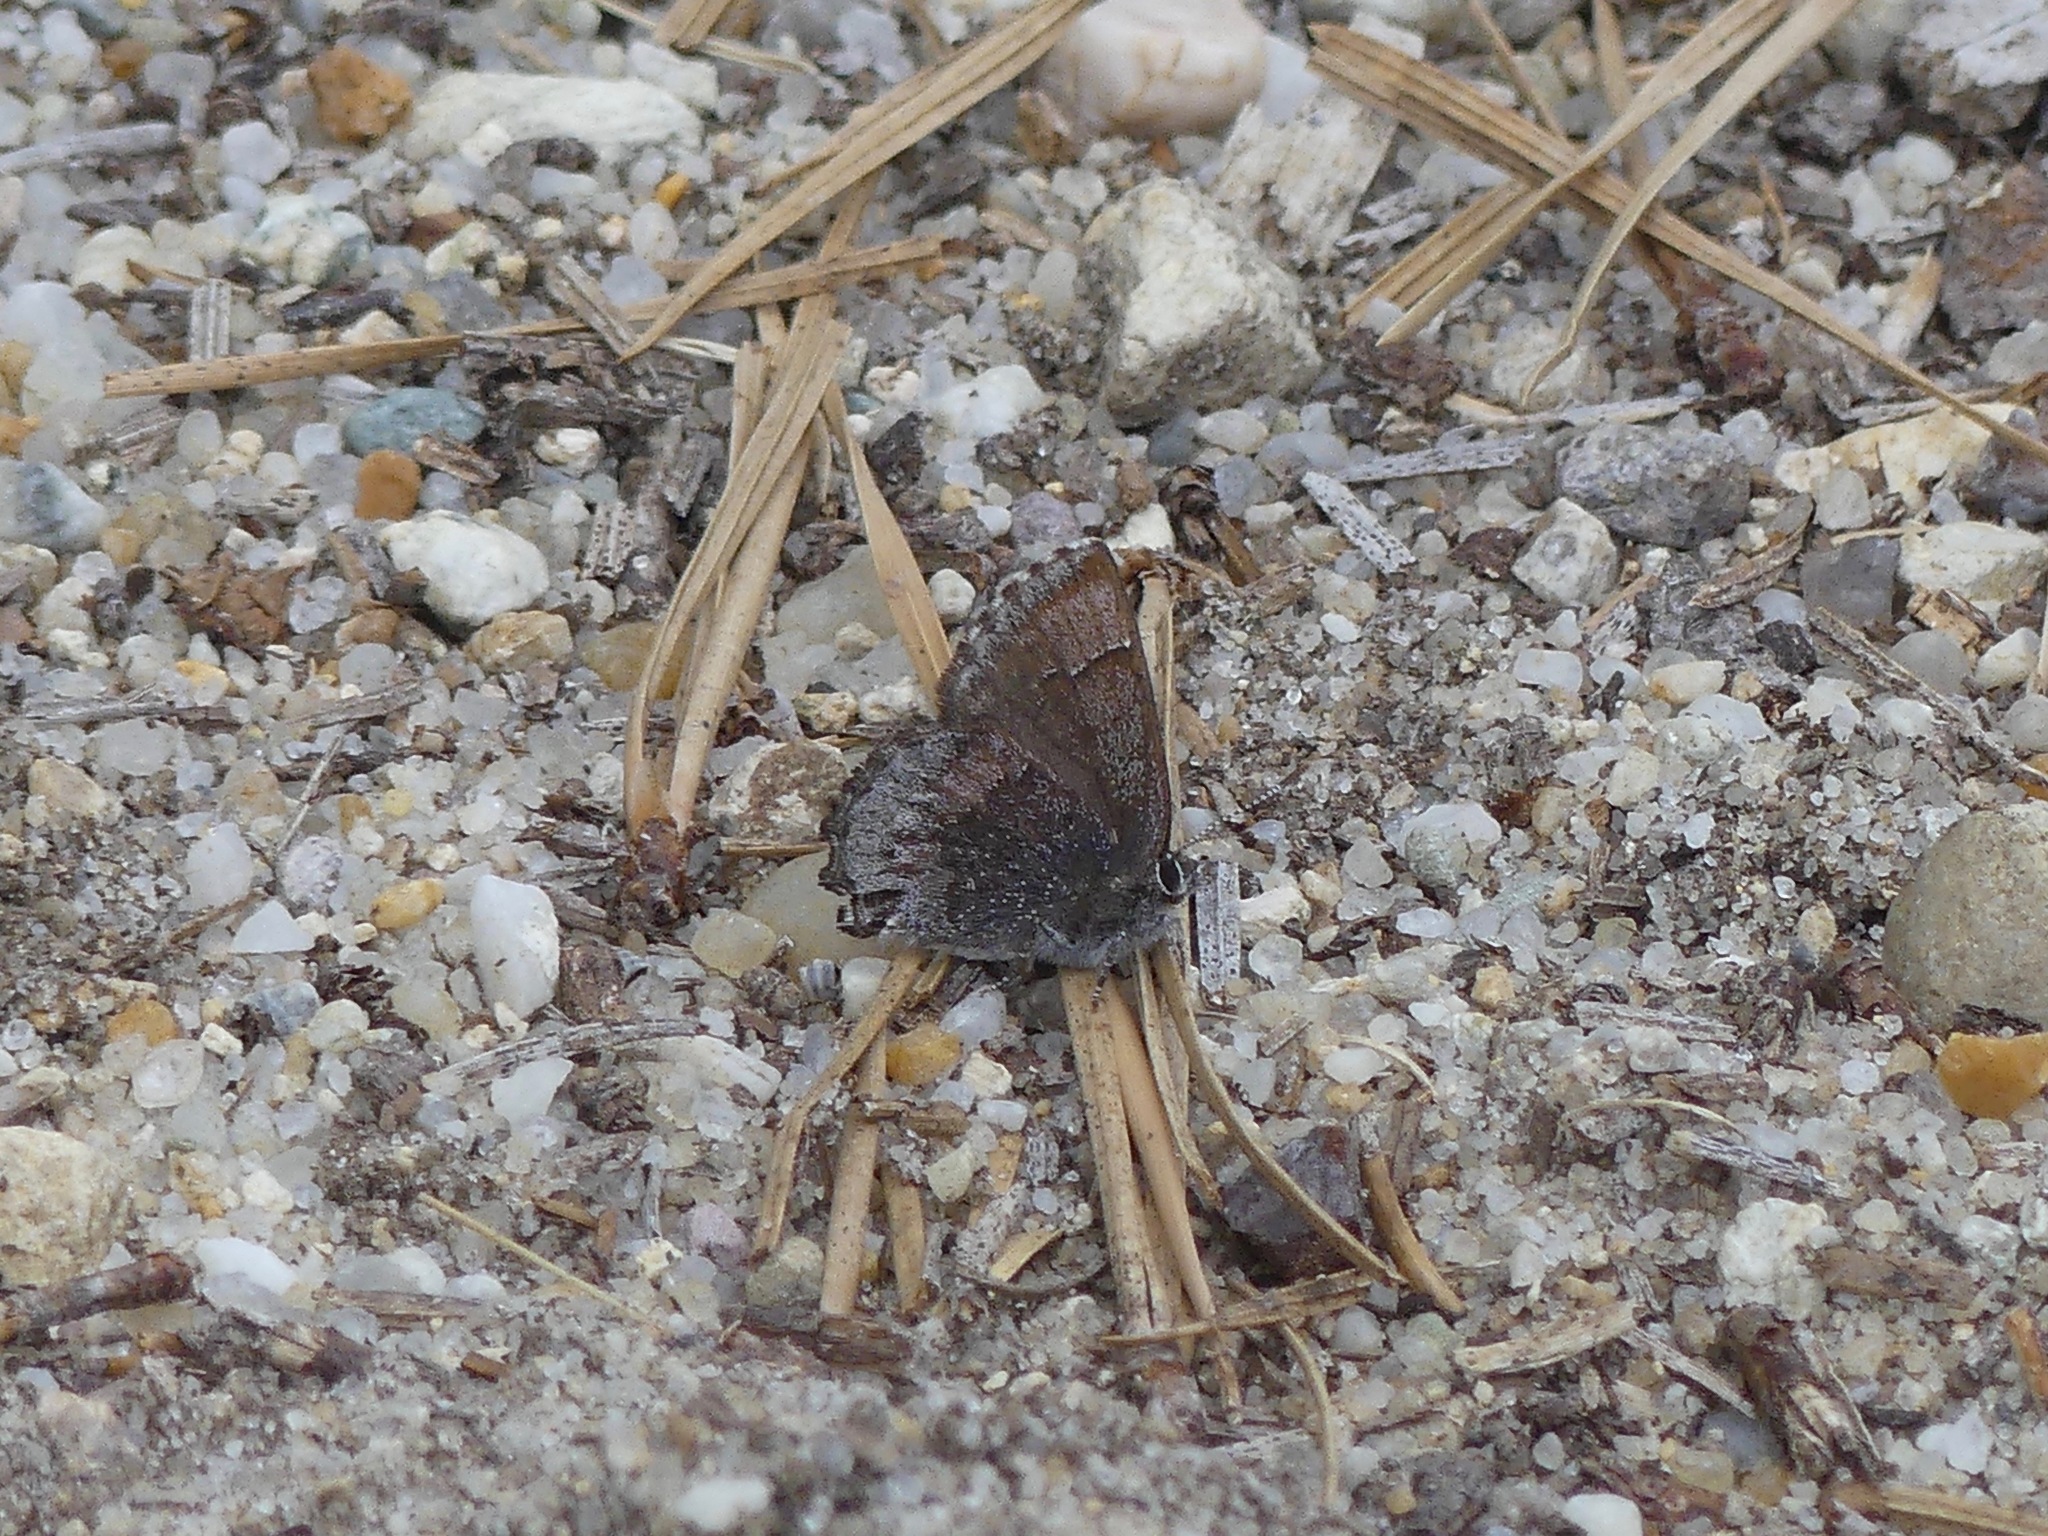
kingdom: Animalia
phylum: Arthropoda
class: Insecta
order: Lepidoptera
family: Lycaenidae
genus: Callophrys
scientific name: Callophrys polios
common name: Hoary elfin
